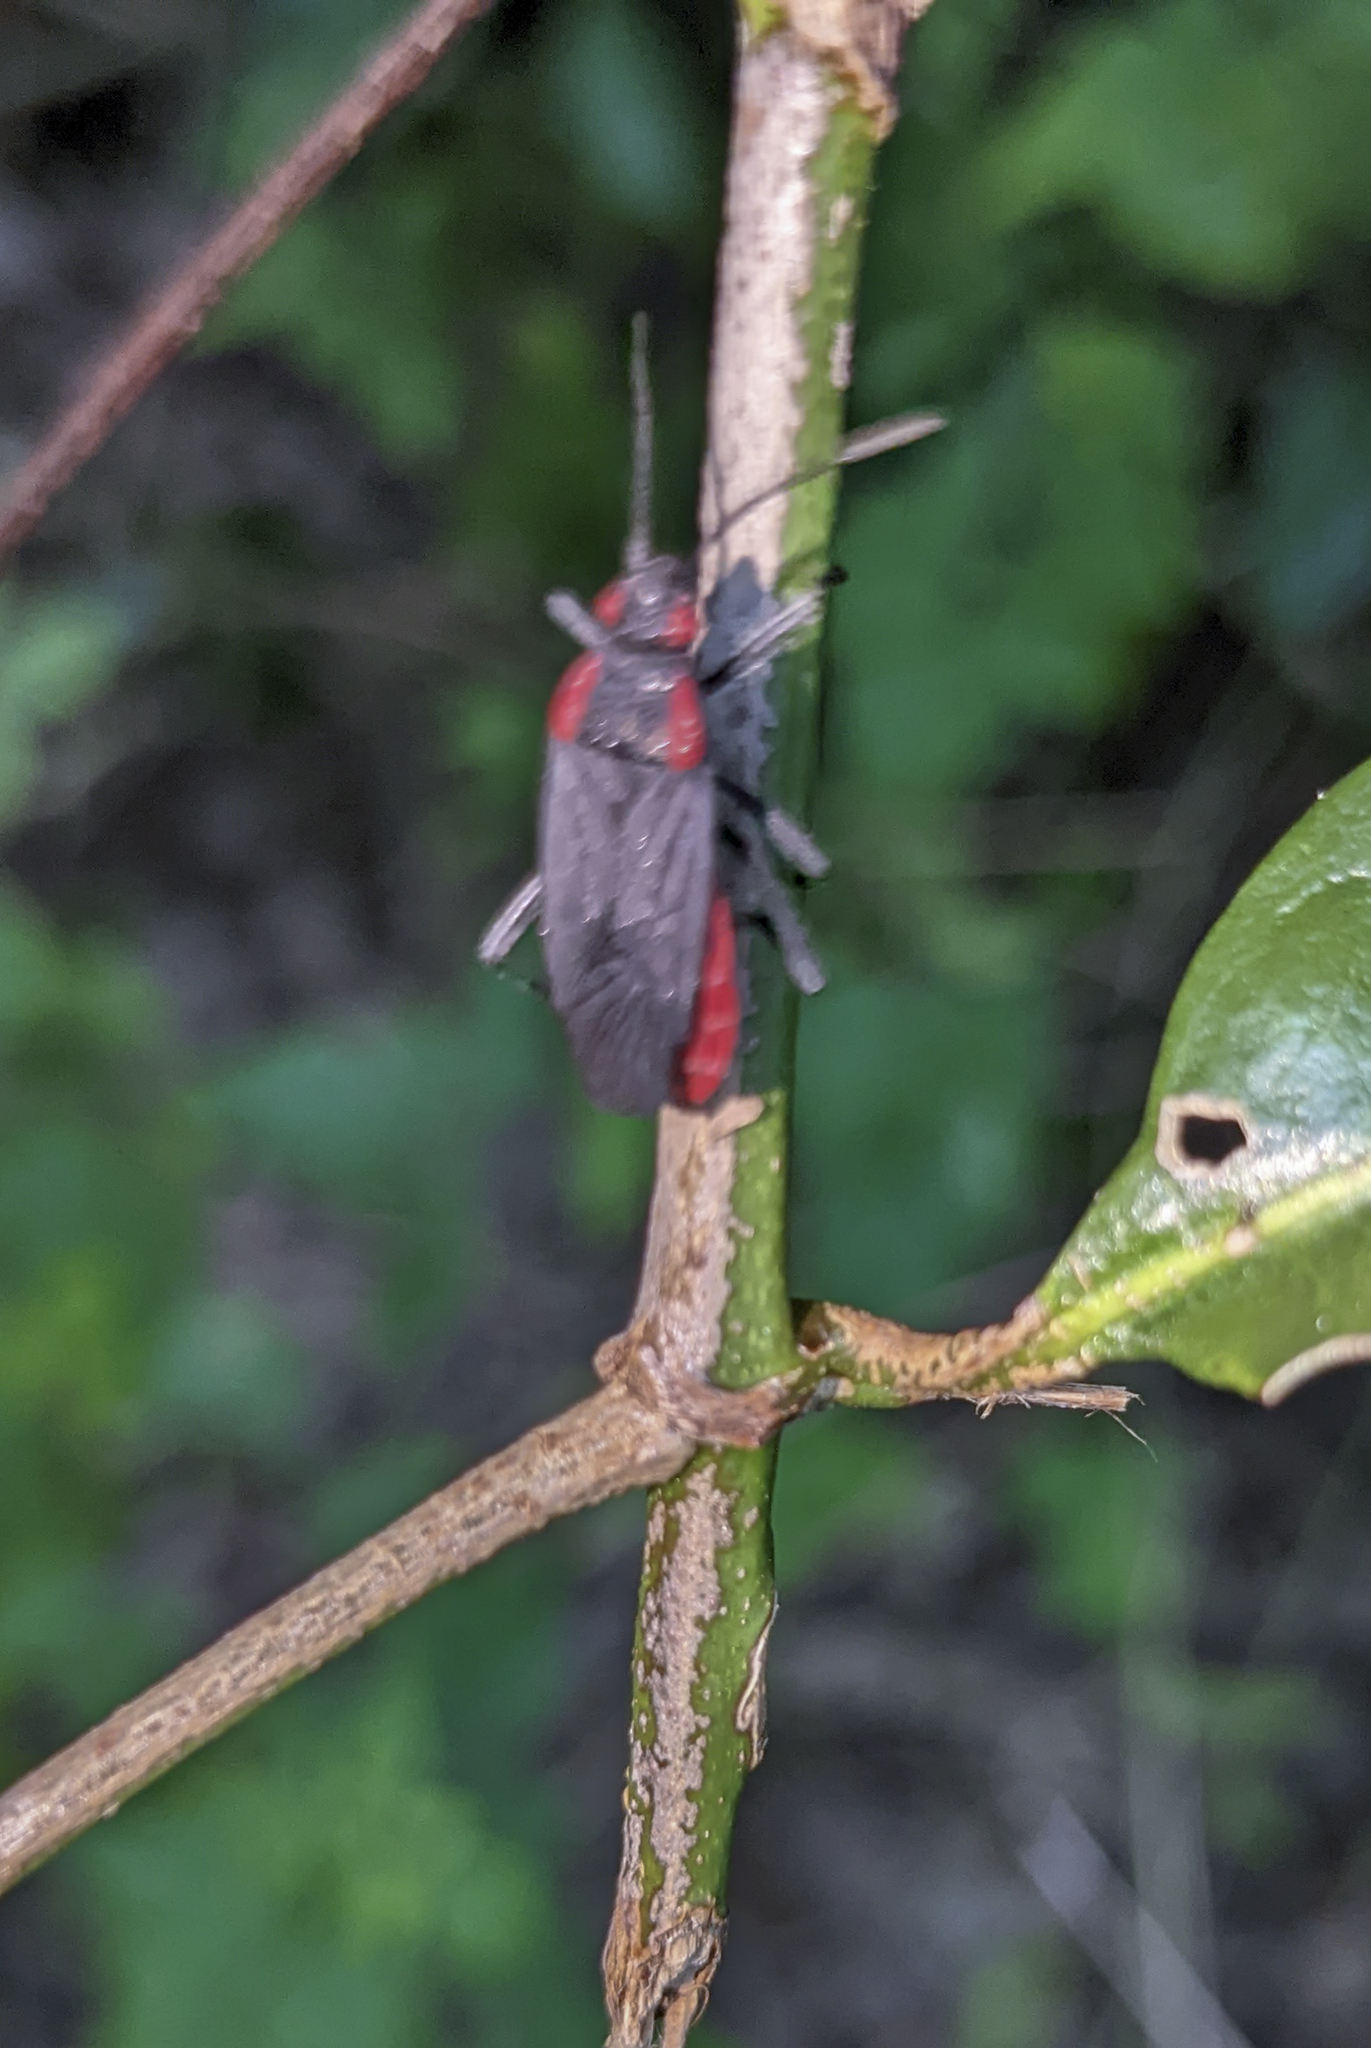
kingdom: Animalia
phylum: Arthropoda
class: Insecta
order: Hemiptera
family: Rhopalidae
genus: Jadera
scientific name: Jadera haematoloma
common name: Red-shouldered bug
